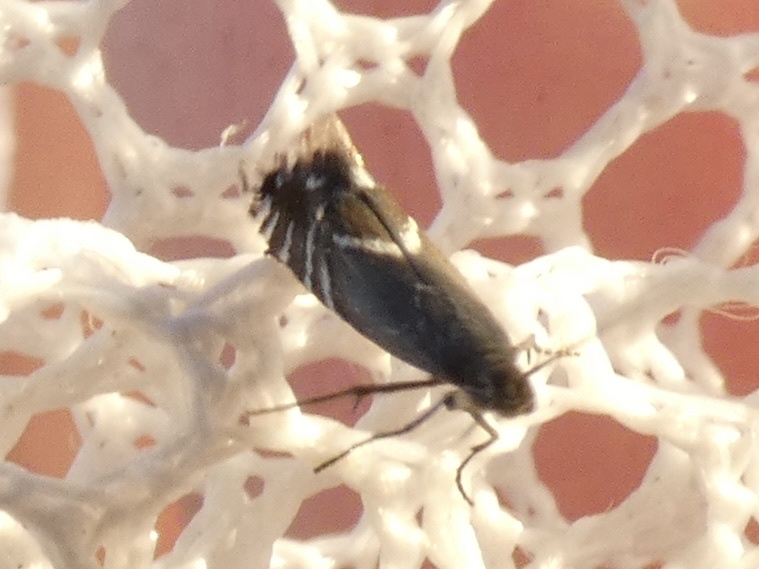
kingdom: Animalia
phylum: Arthropoda
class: Insecta
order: Lepidoptera
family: Glyphipterigidae
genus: Glyphipterix
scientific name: Glyphipterix simpliciella
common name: Cocksfoot moth
